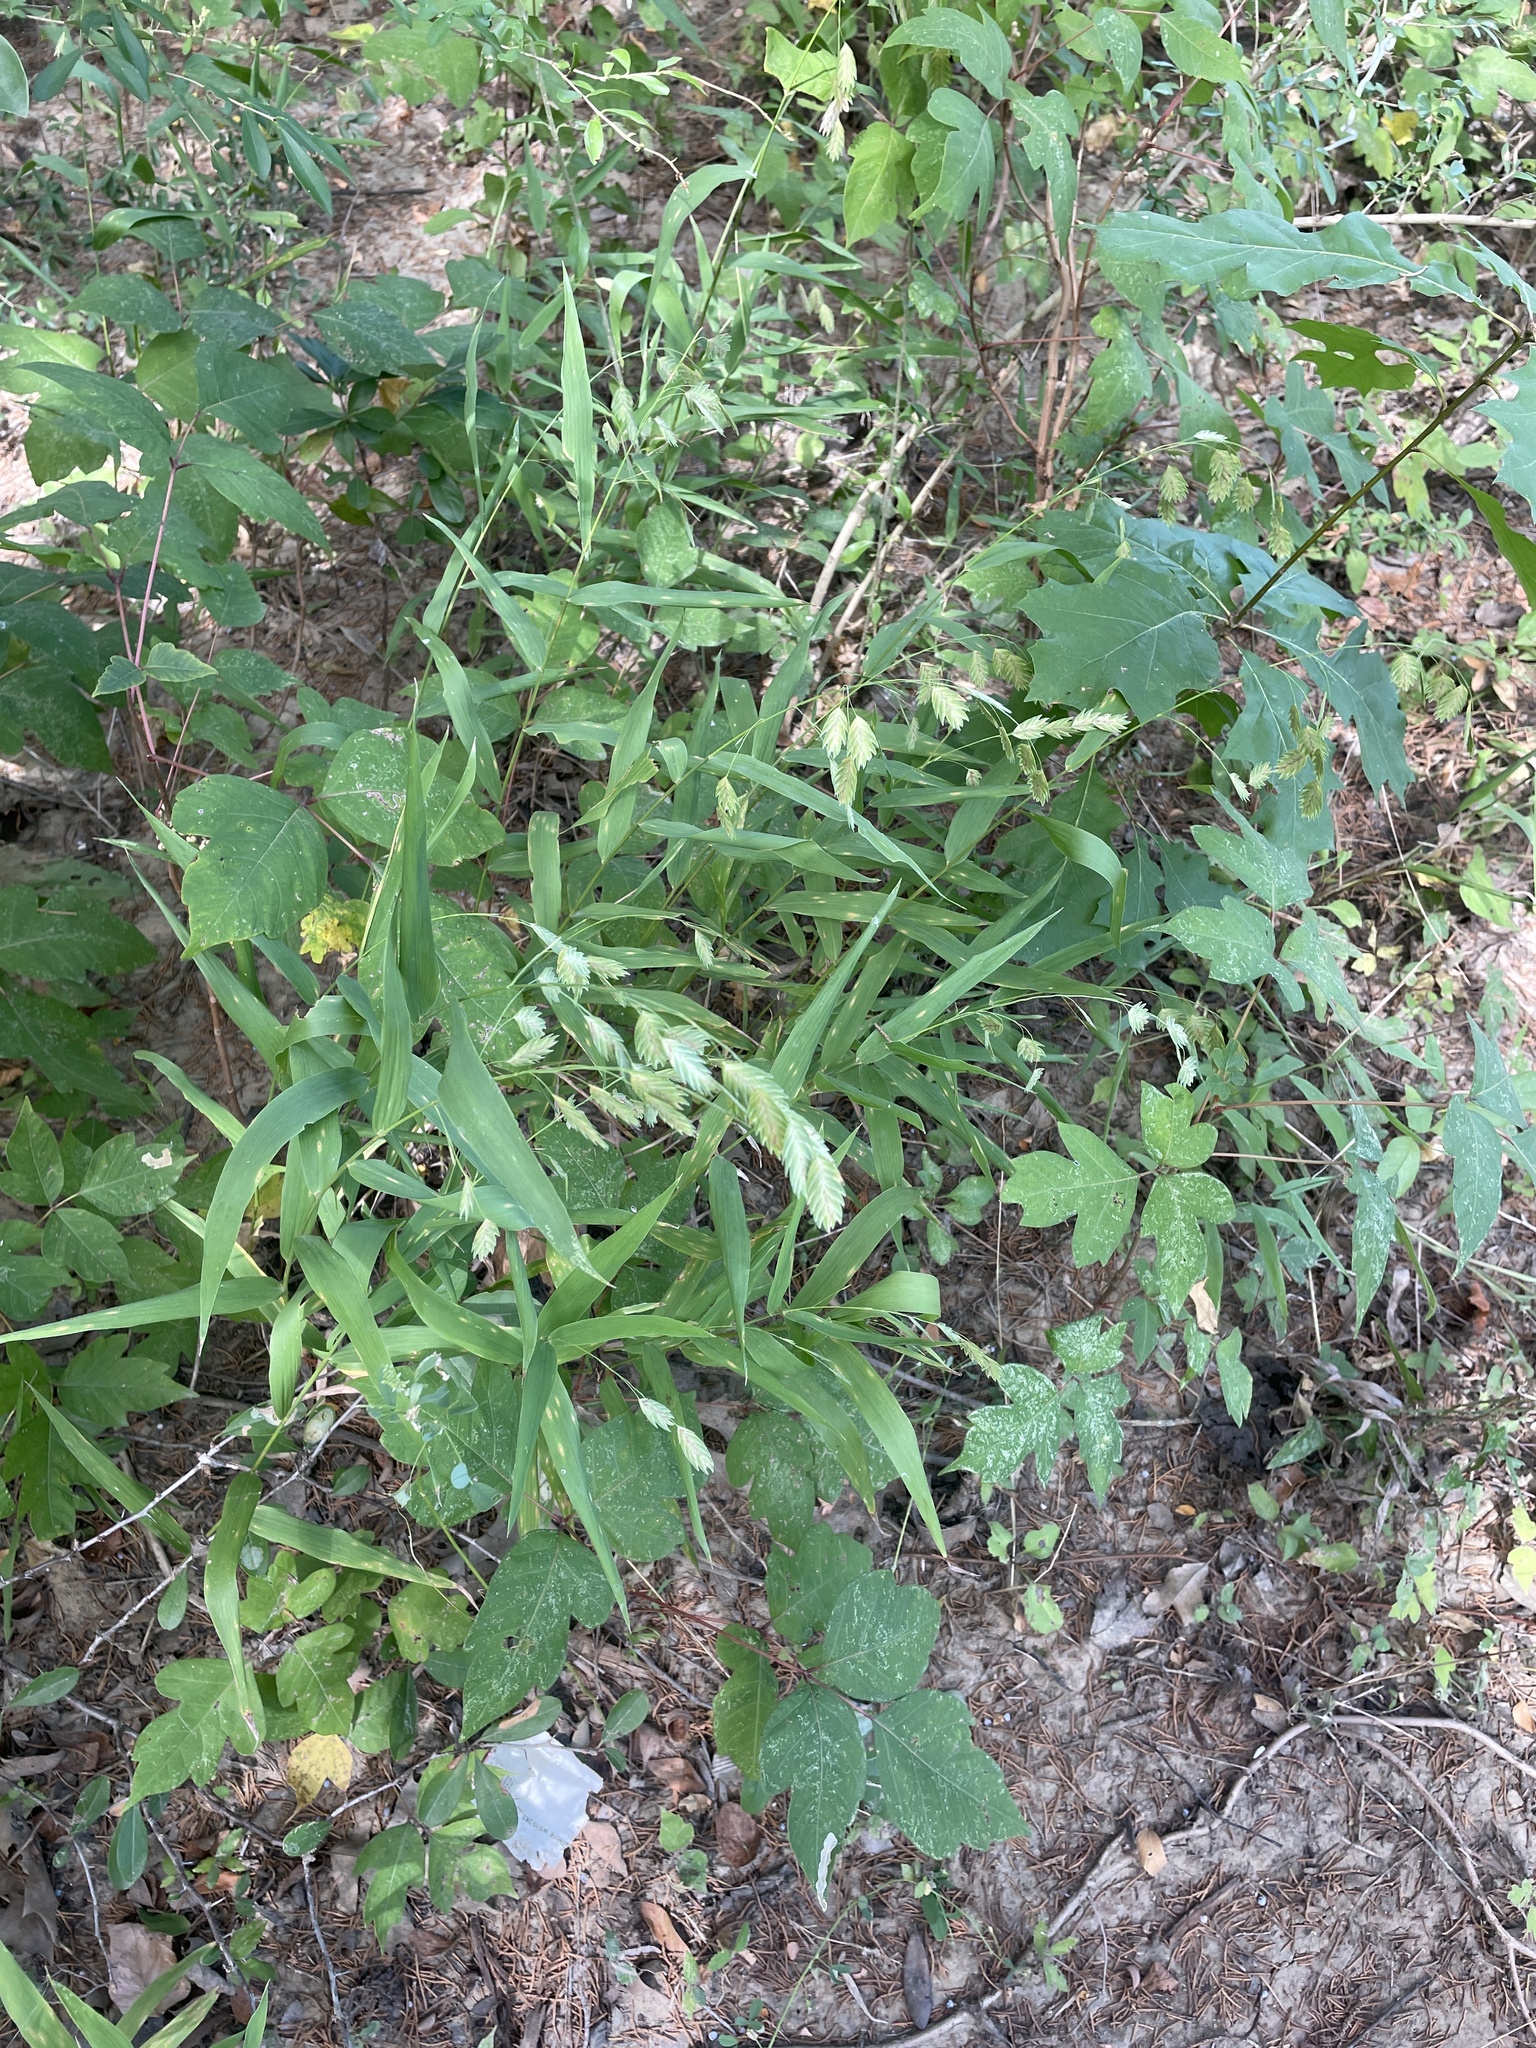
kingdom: Plantae
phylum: Tracheophyta
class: Liliopsida
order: Poales
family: Poaceae
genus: Chasmanthium
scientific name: Chasmanthium latifolium
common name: Broad-leaved chasmanthium
